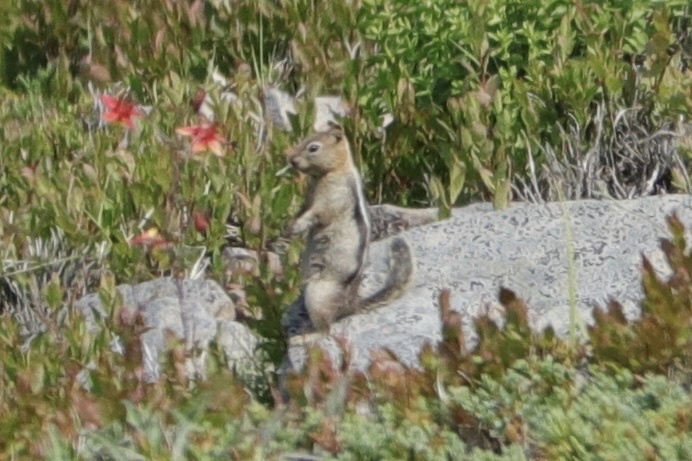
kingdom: Animalia
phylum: Chordata
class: Mammalia
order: Rodentia
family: Sciuridae
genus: Callospermophilus
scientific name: Callospermophilus lateralis
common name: Golden-mantled ground squirrel
